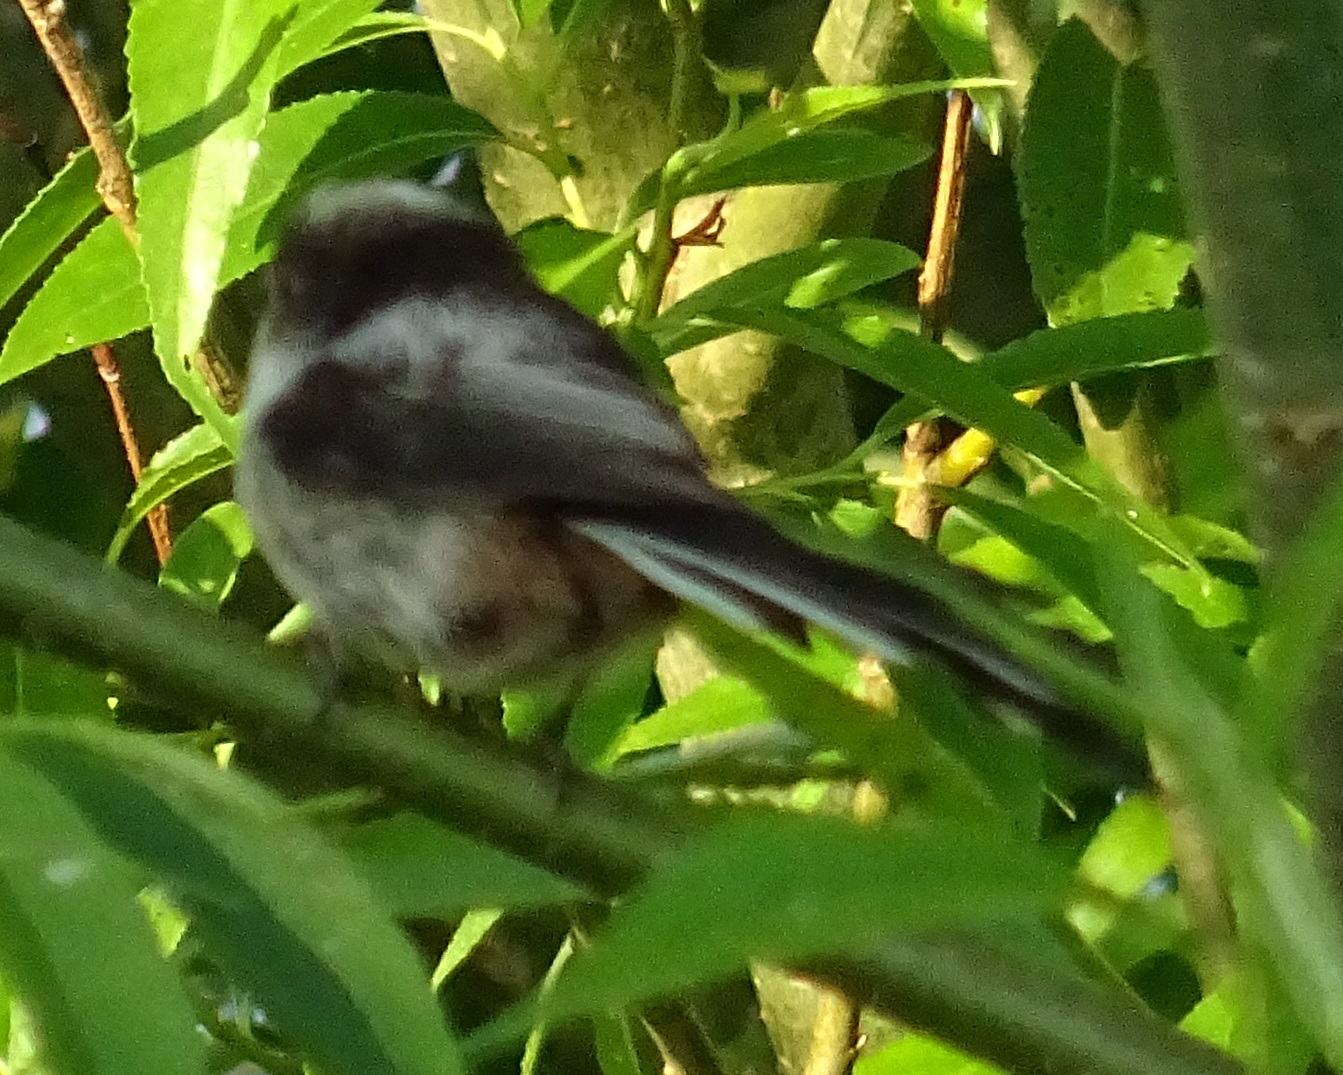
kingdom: Animalia
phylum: Chordata
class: Aves
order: Passeriformes
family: Aegithalidae
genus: Aegithalos
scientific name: Aegithalos caudatus
